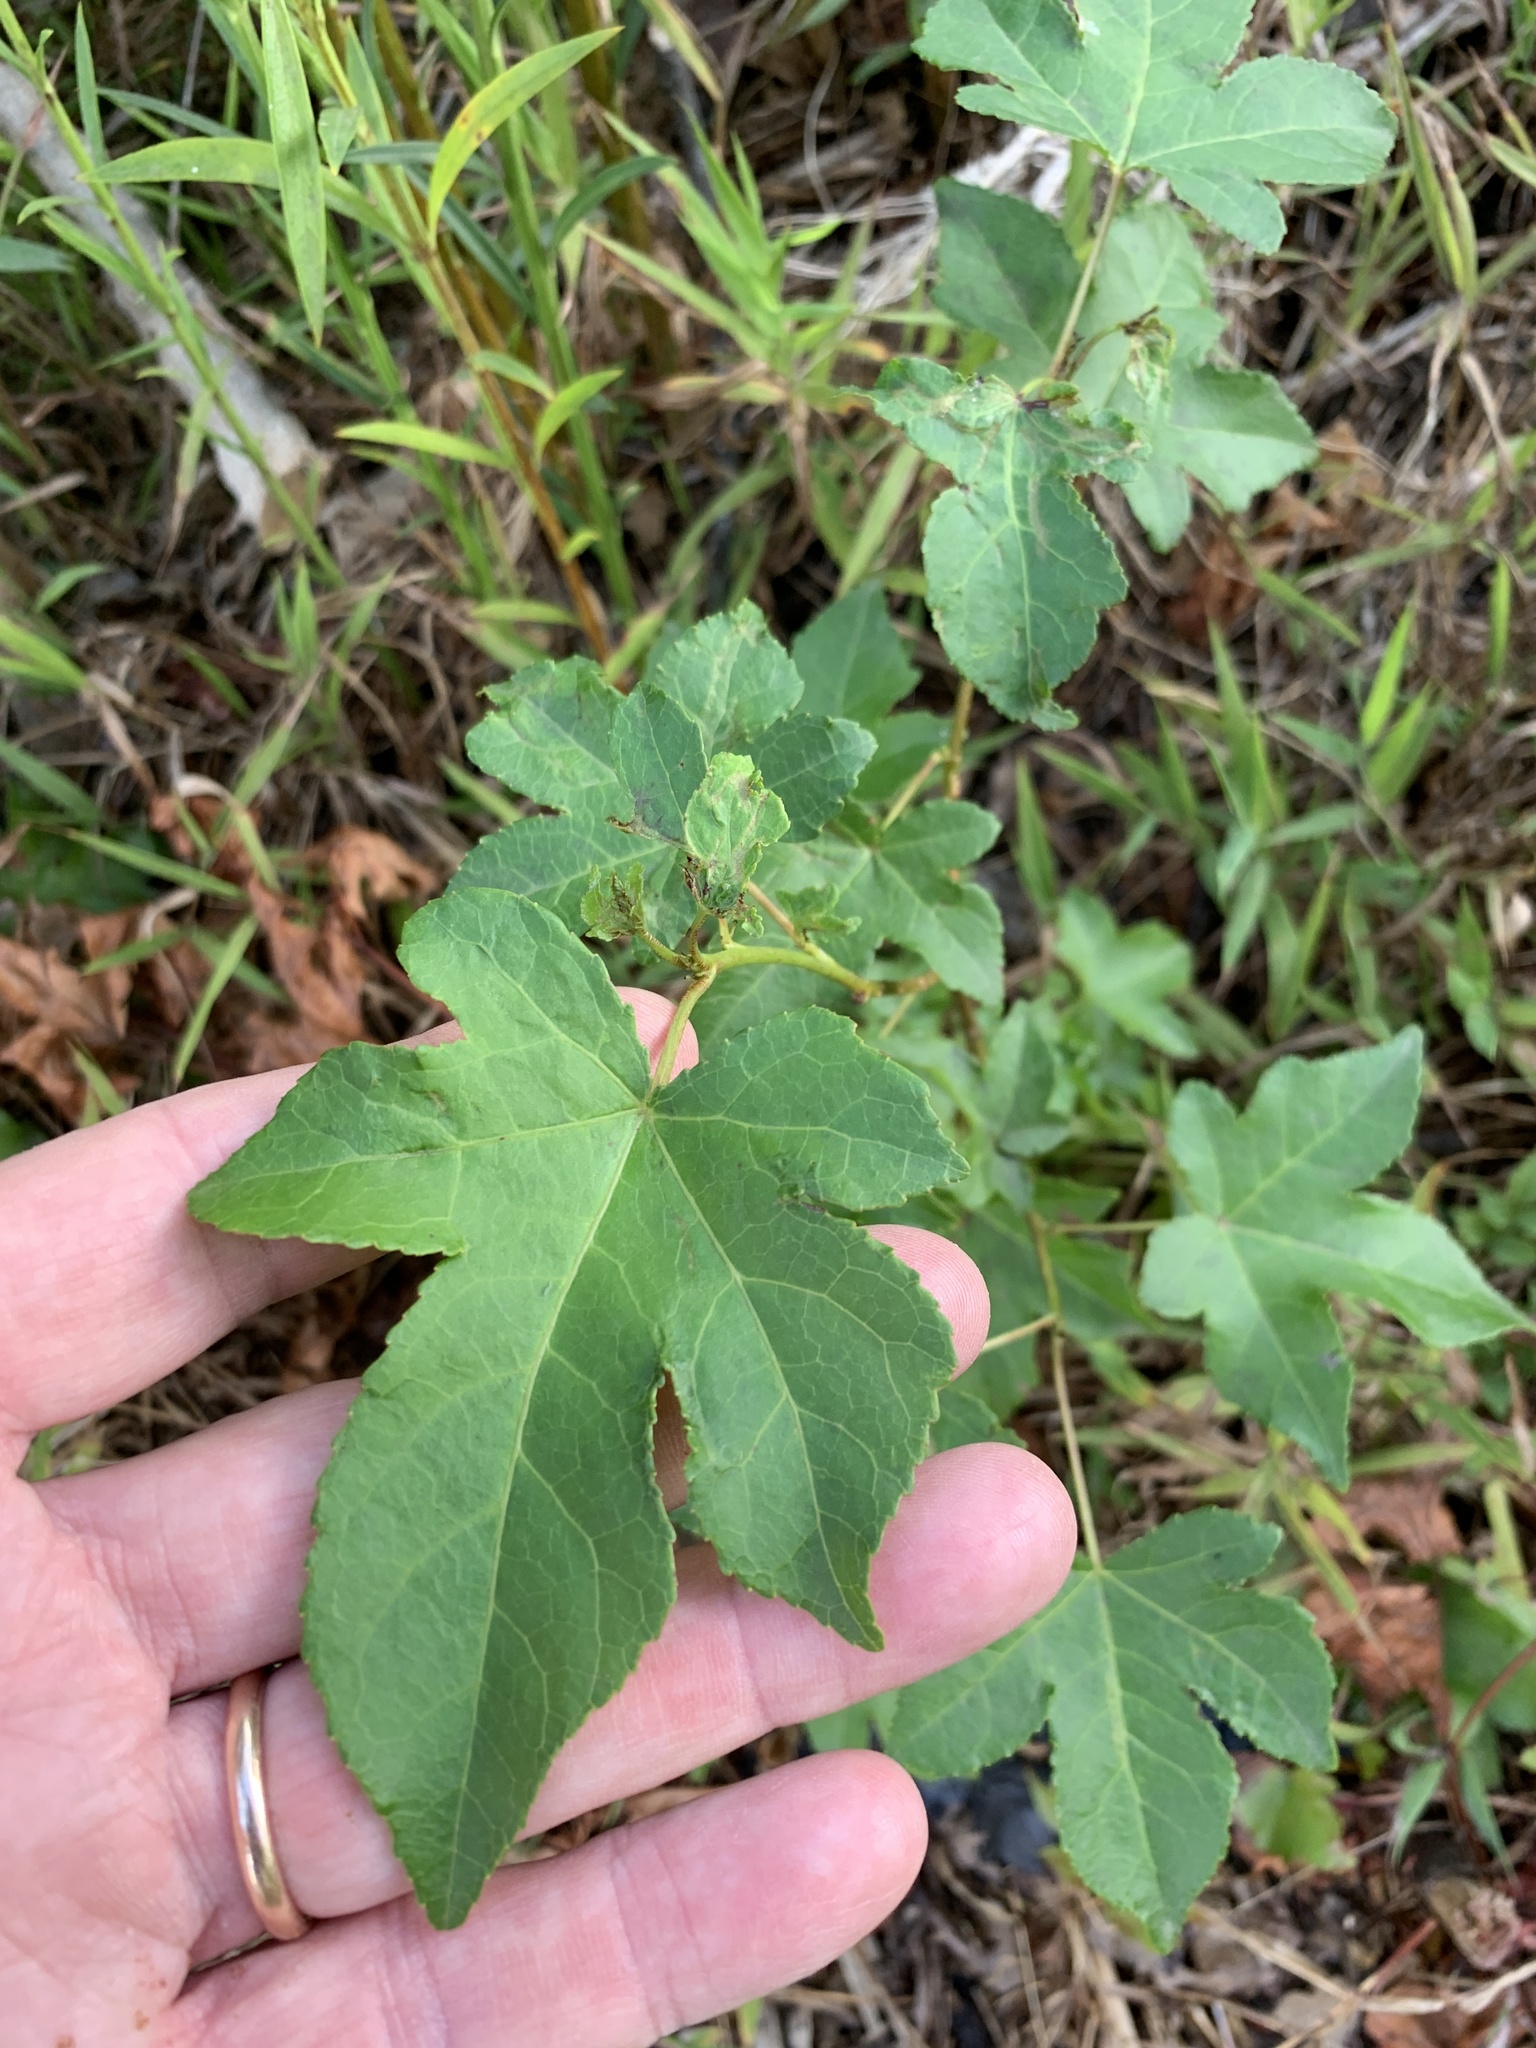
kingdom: Plantae
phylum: Tracheophyta
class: Magnoliopsida
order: Saxifragales
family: Altingiaceae
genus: Liquidambar
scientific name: Liquidambar styraciflua
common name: Sweet gum
